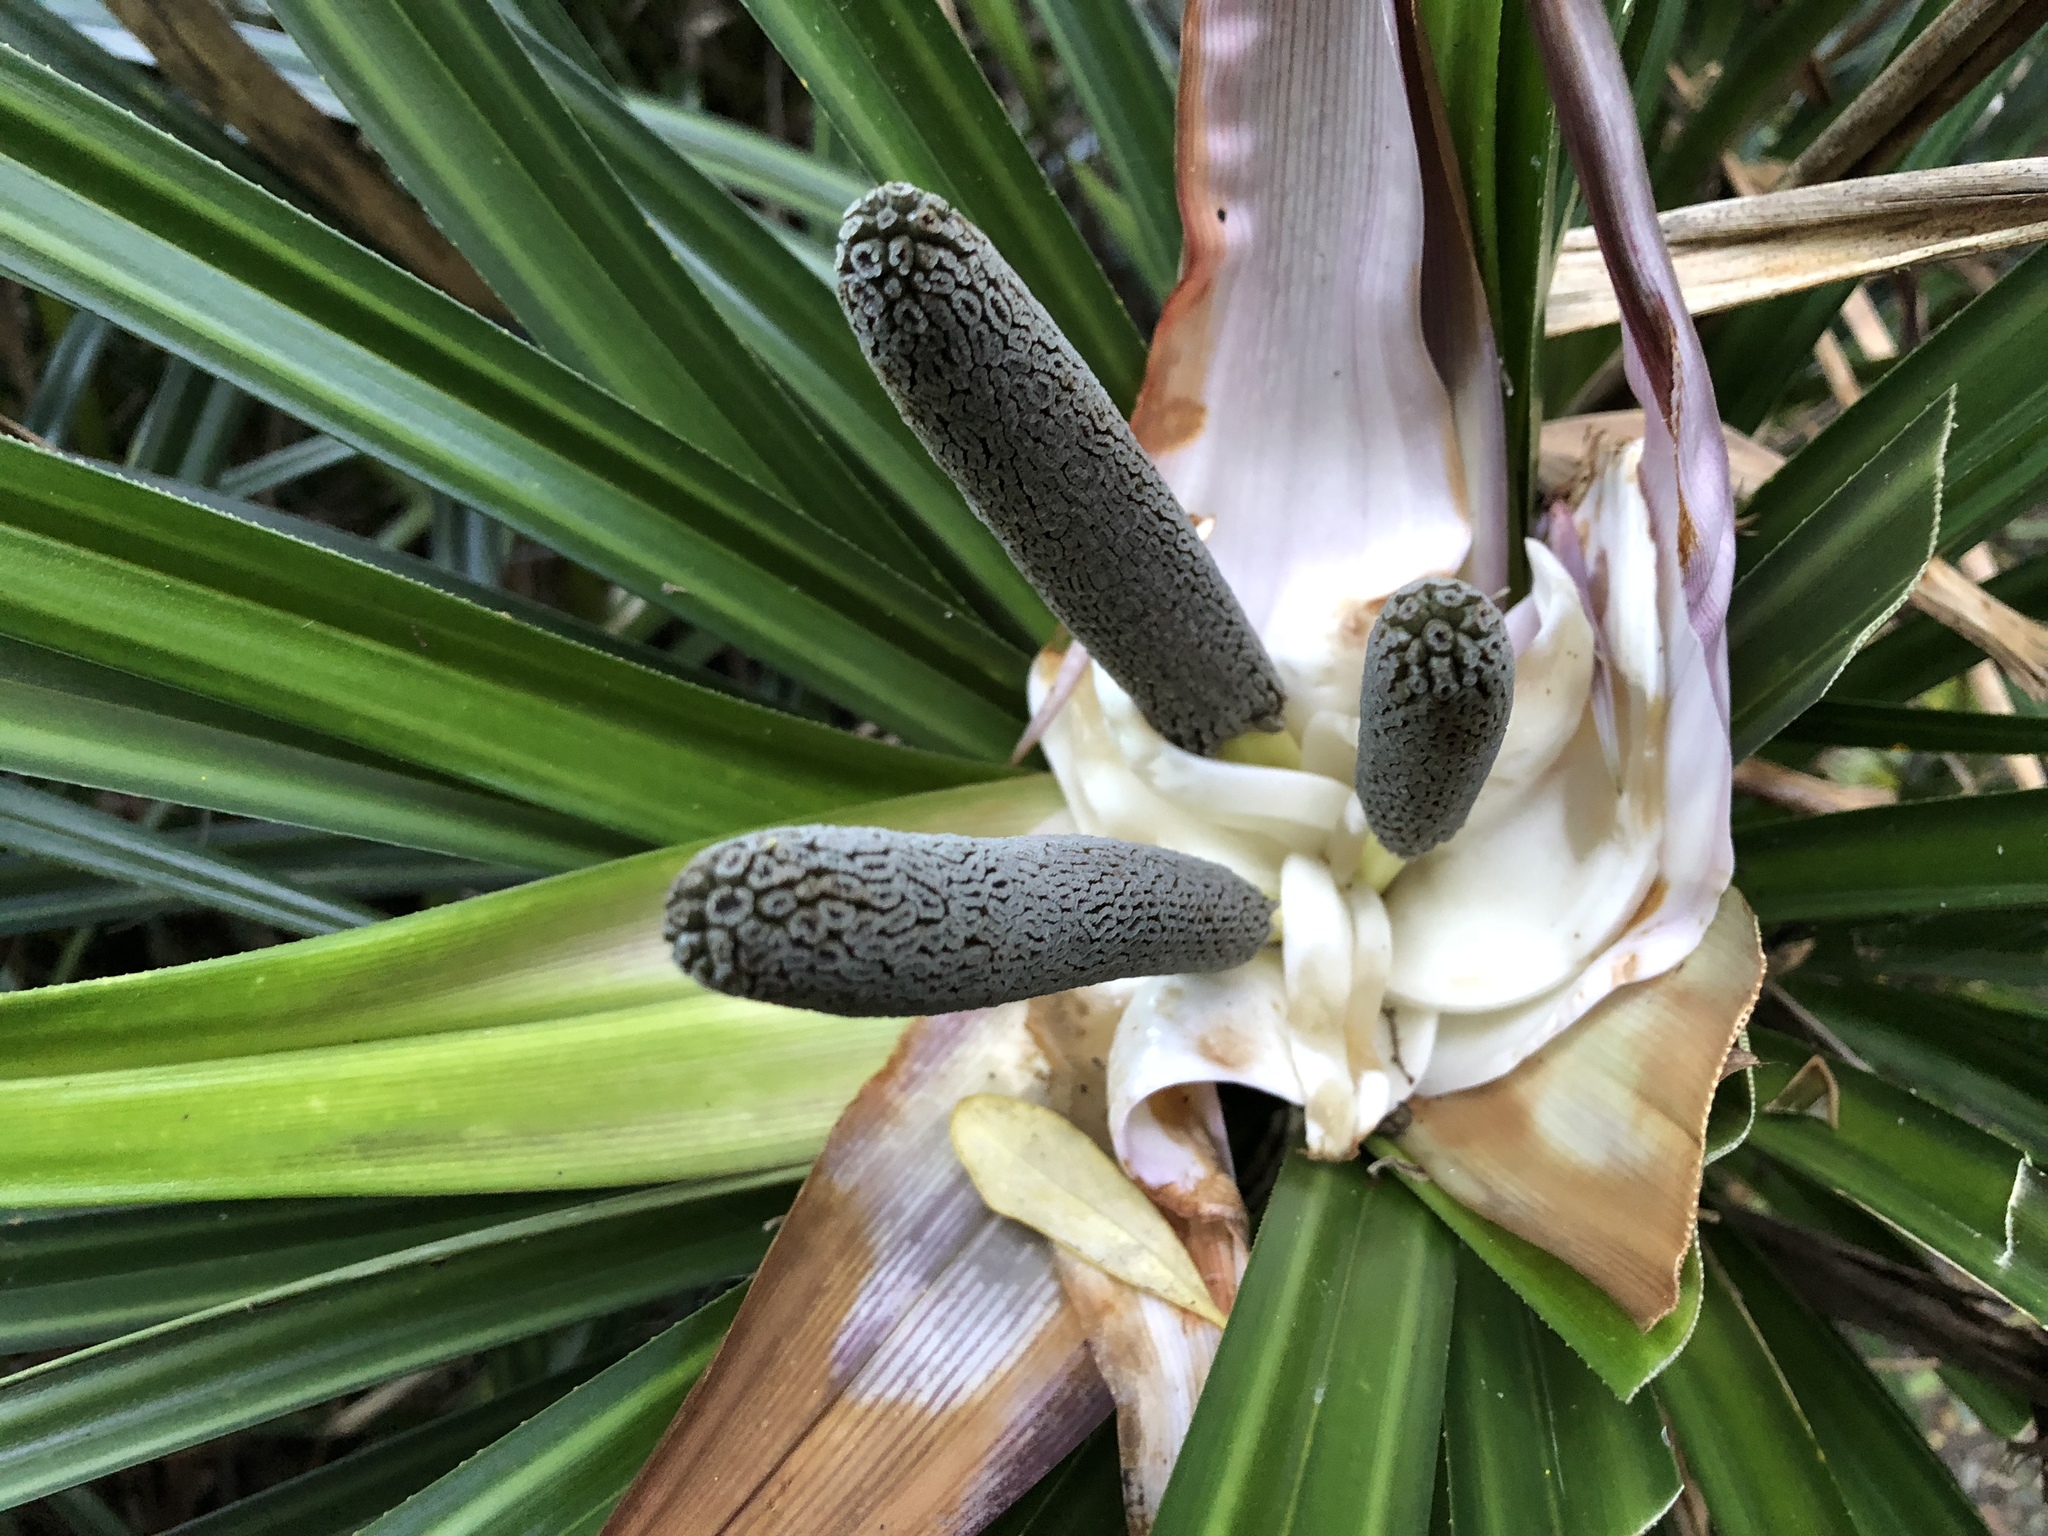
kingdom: Plantae
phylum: Tracheophyta
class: Liliopsida
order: Pandanales
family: Pandanaceae
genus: Freycinetia
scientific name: Freycinetia banksii
